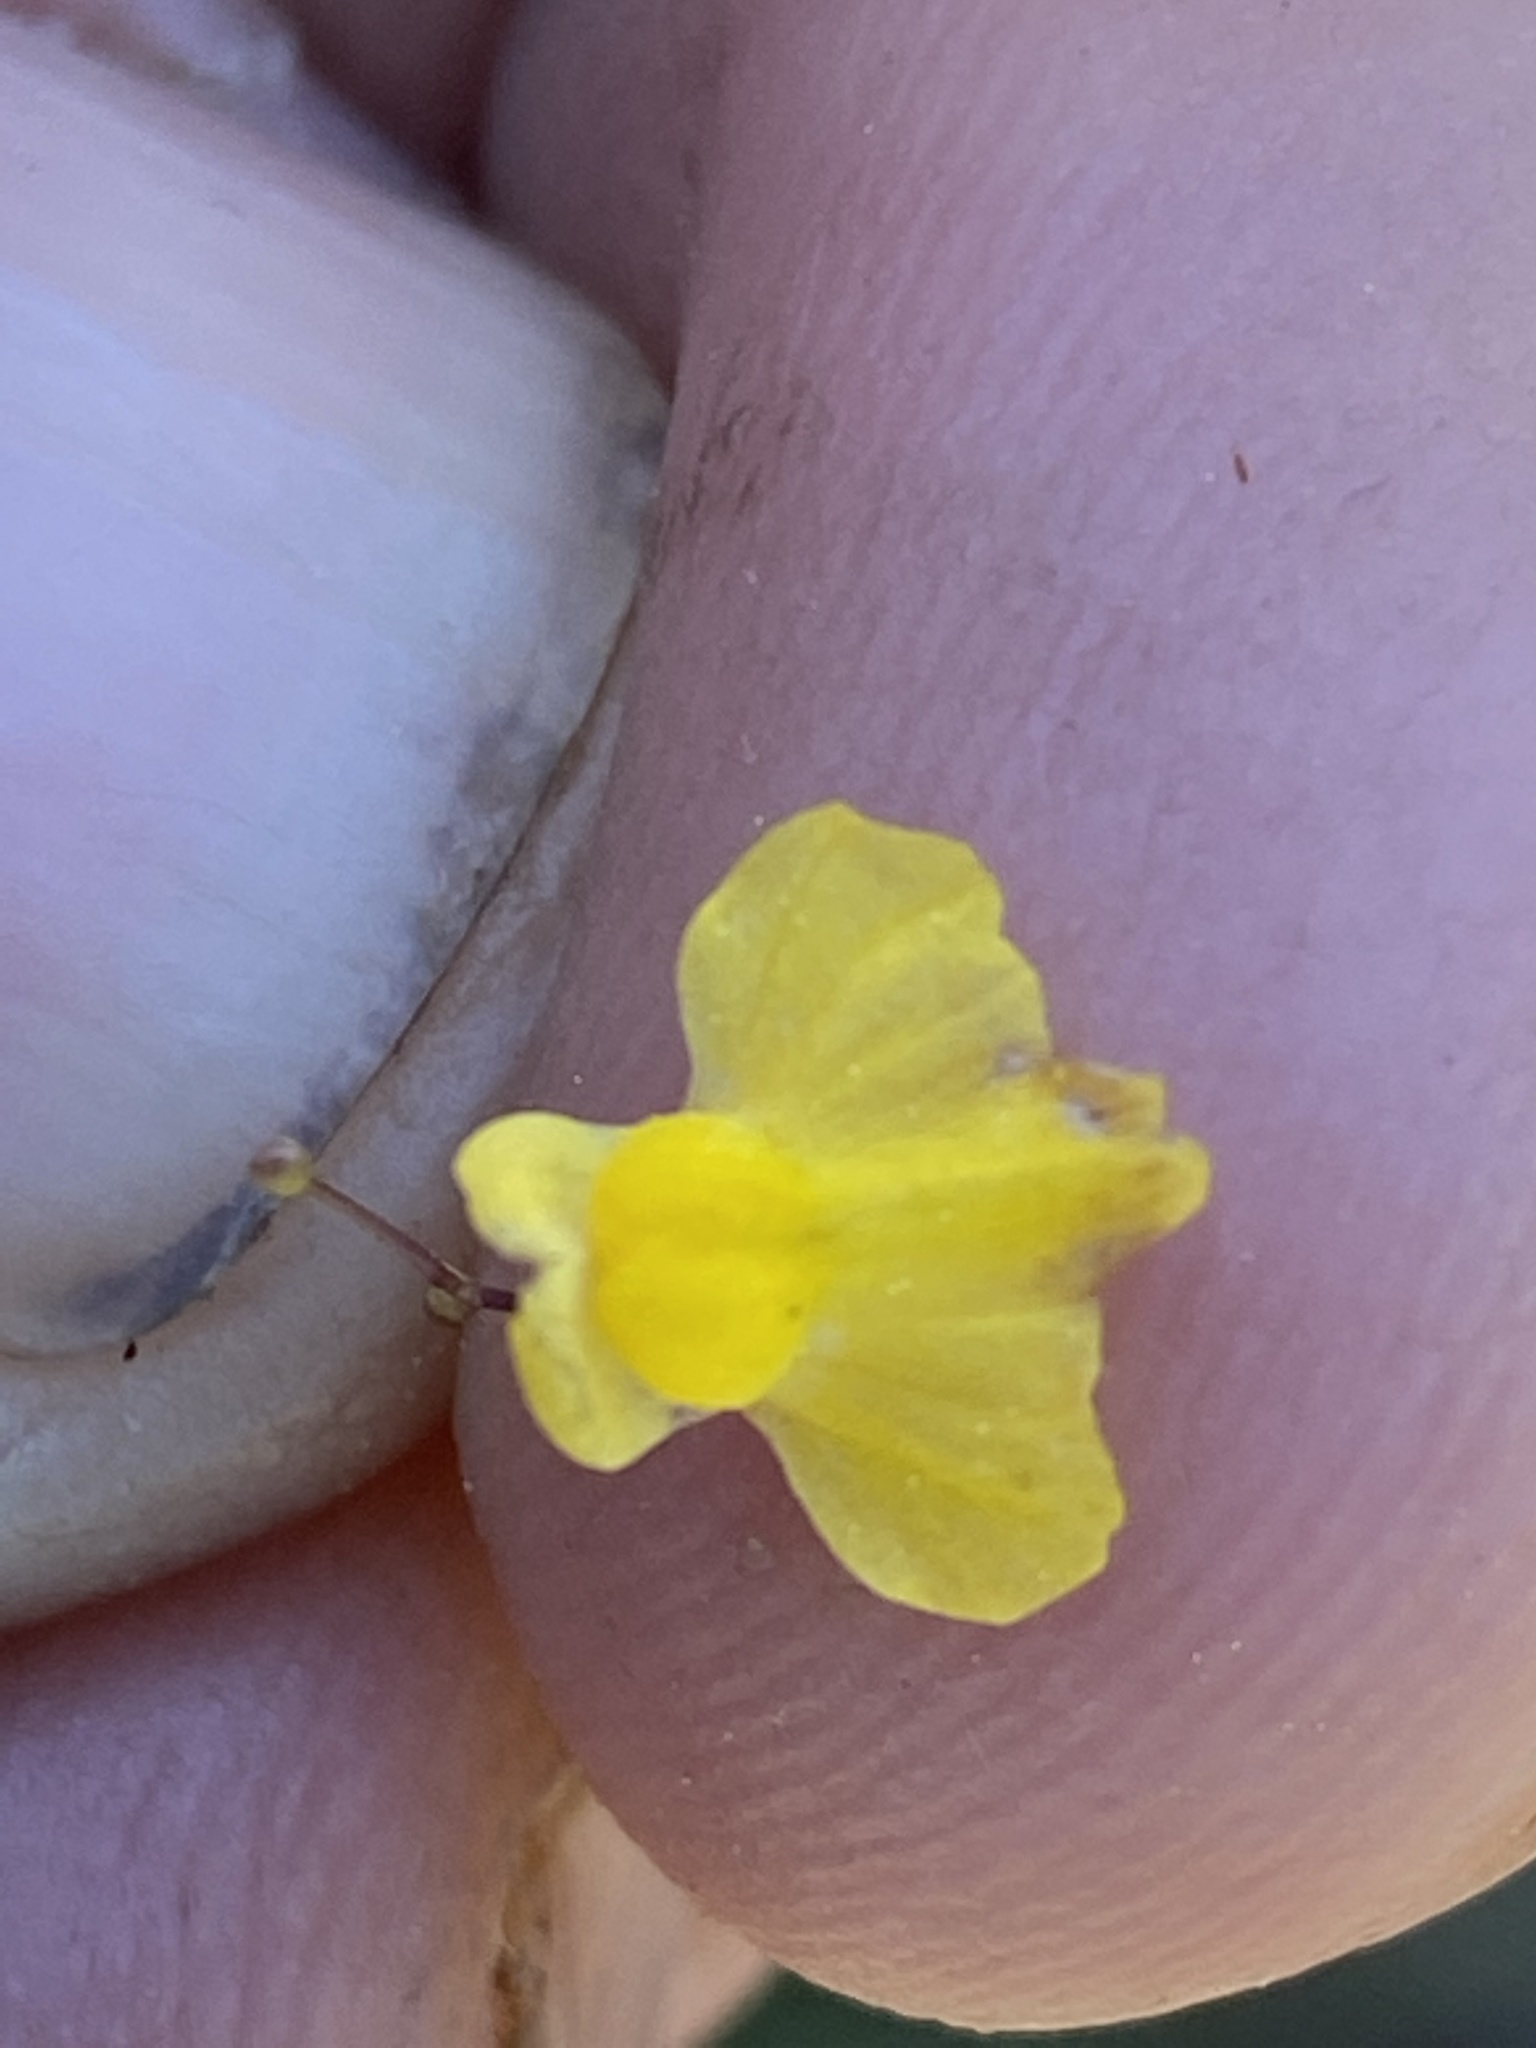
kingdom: Plantae
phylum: Tracheophyta
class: Magnoliopsida
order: Lamiales
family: Lentibulariaceae
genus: Utricularia
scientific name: Utricularia subulata
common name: Tiny bladderwort
